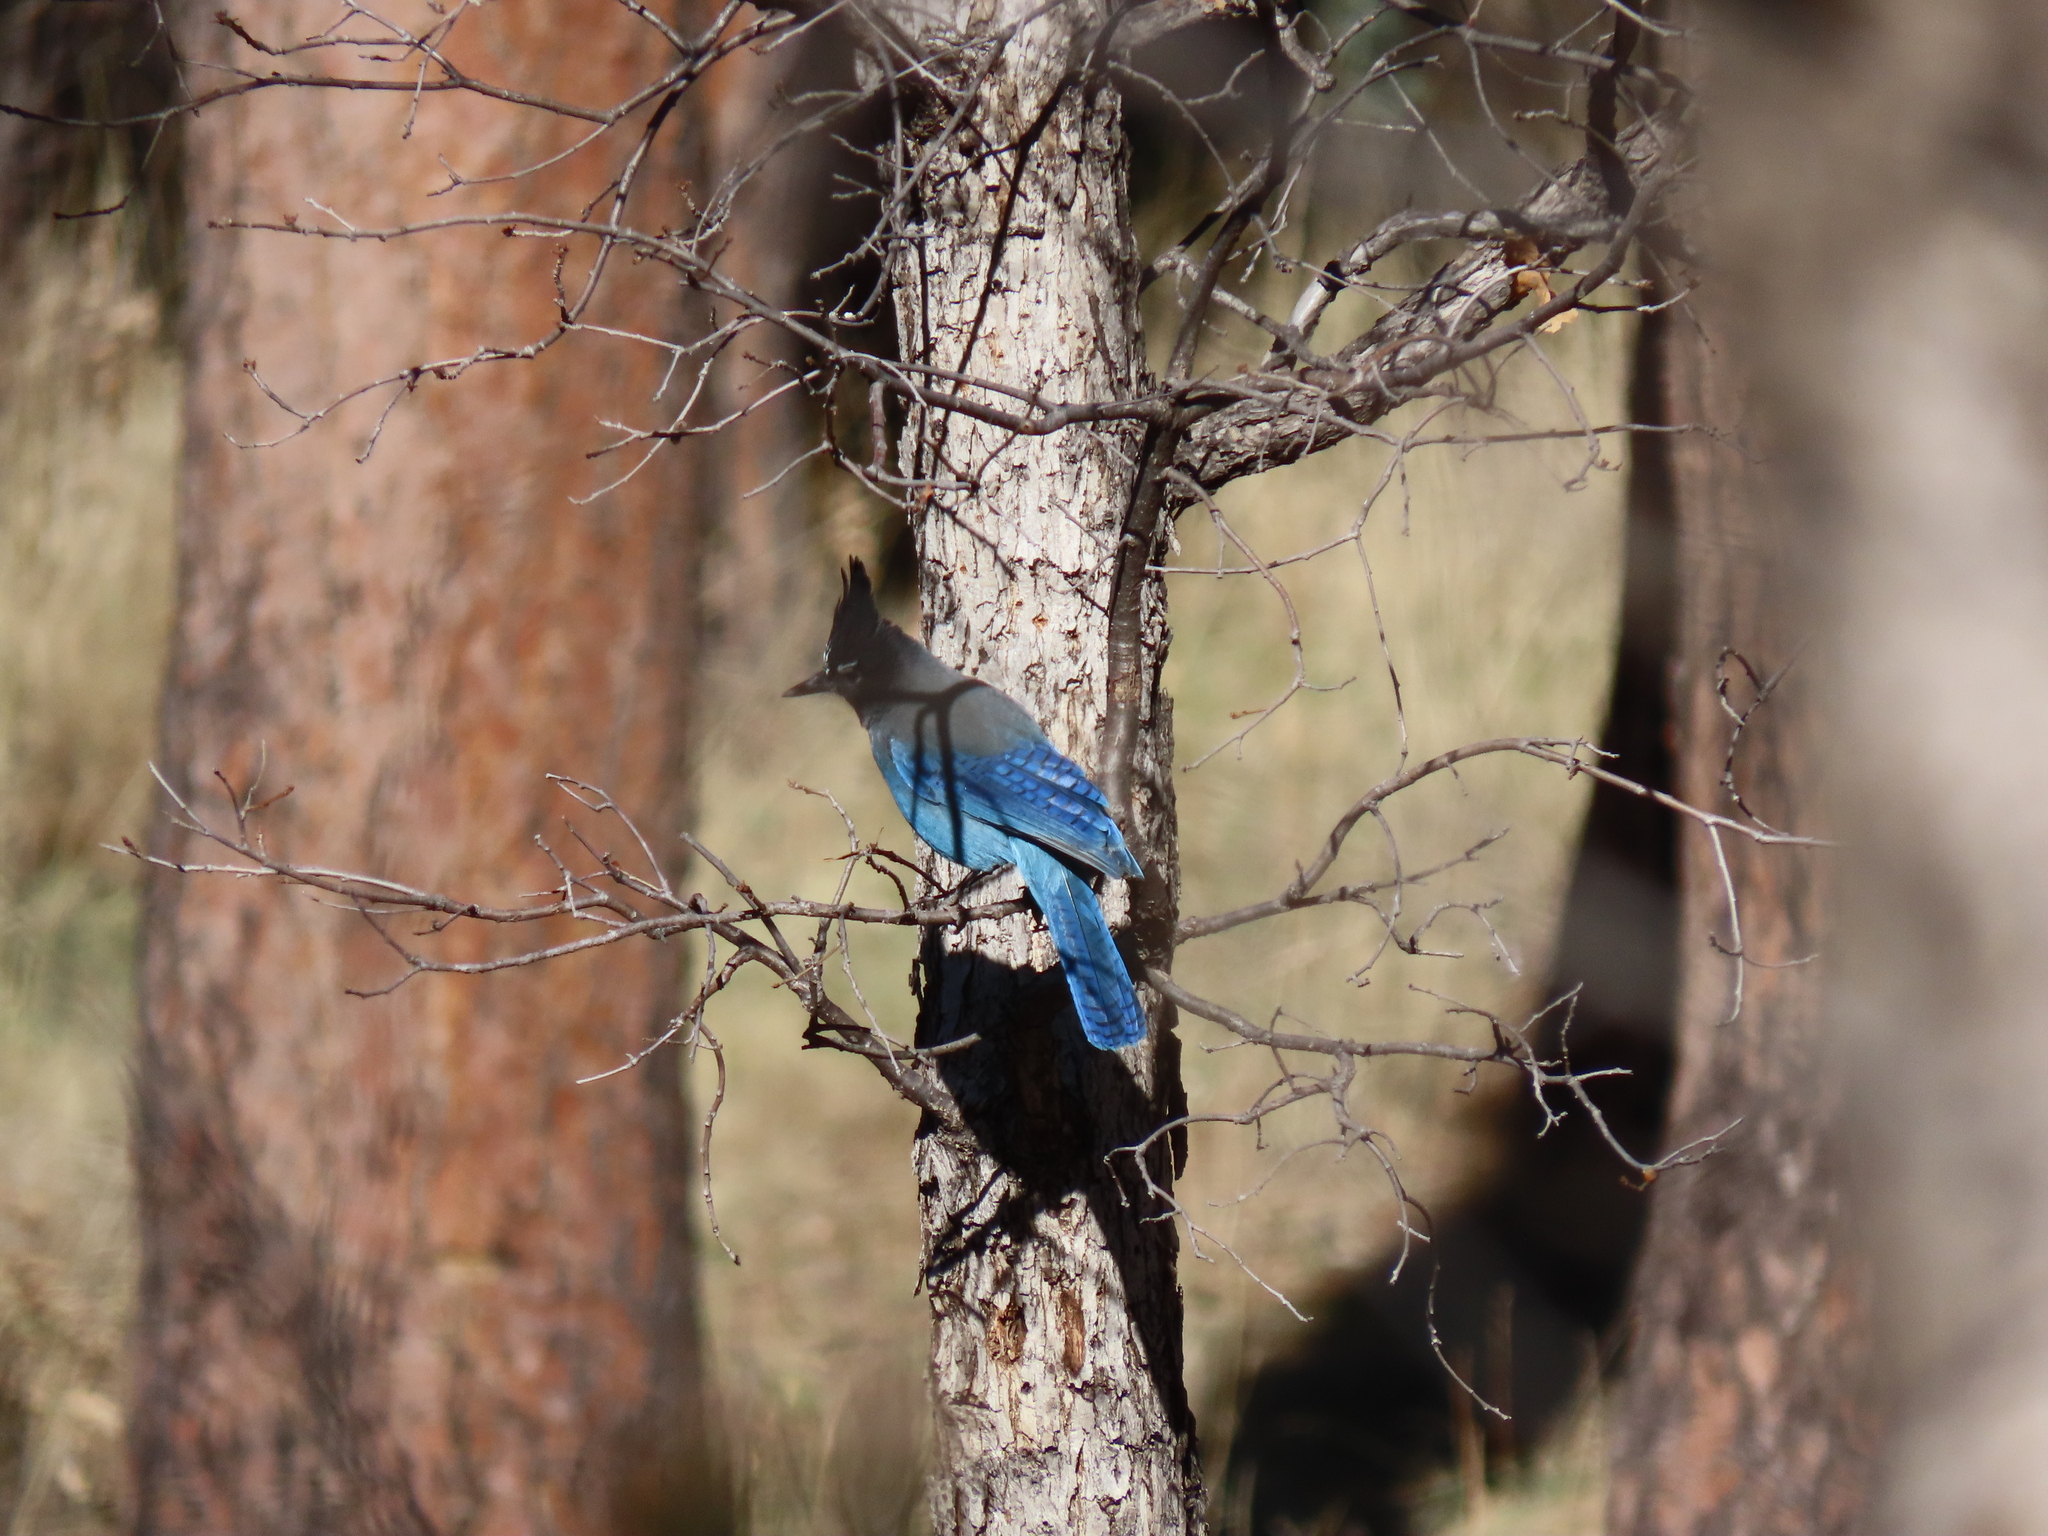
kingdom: Animalia
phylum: Chordata
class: Aves
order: Passeriformes
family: Corvidae
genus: Cyanocitta
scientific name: Cyanocitta stelleri
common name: Steller's jay
